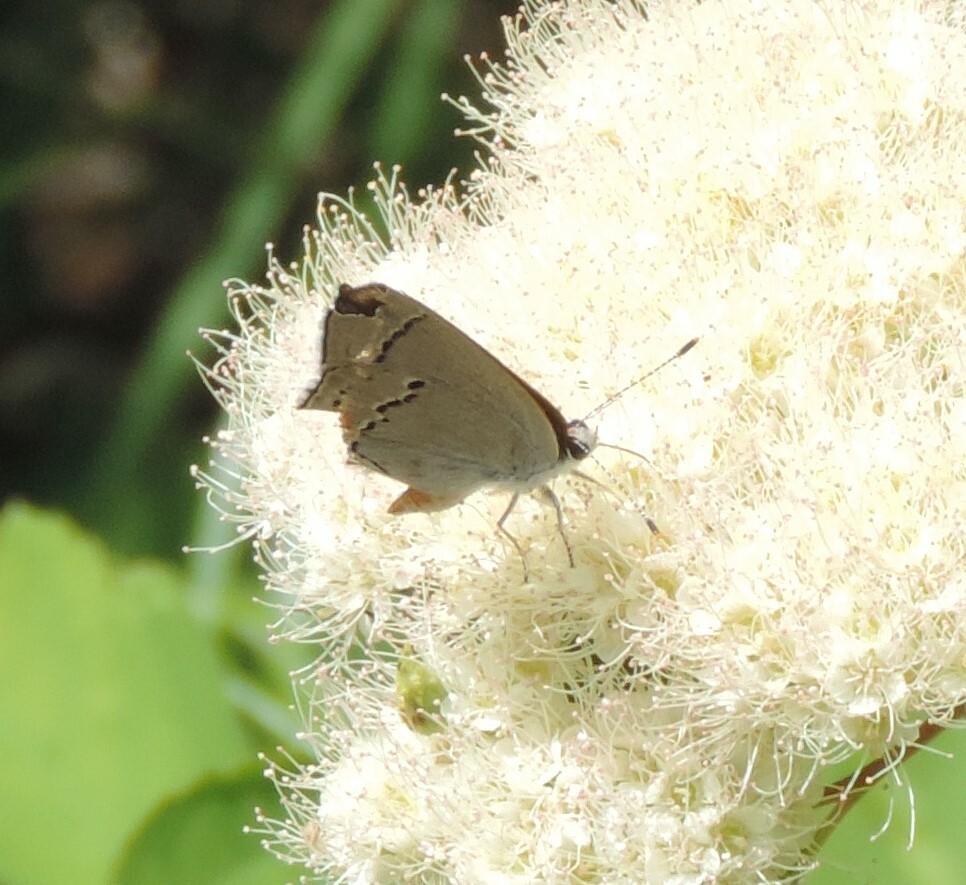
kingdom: Animalia
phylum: Arthropoda
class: Insecta
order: Lepidoptera
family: Lycaenidae
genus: Strymon
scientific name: Strymon melinus
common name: Gray hairstreak
